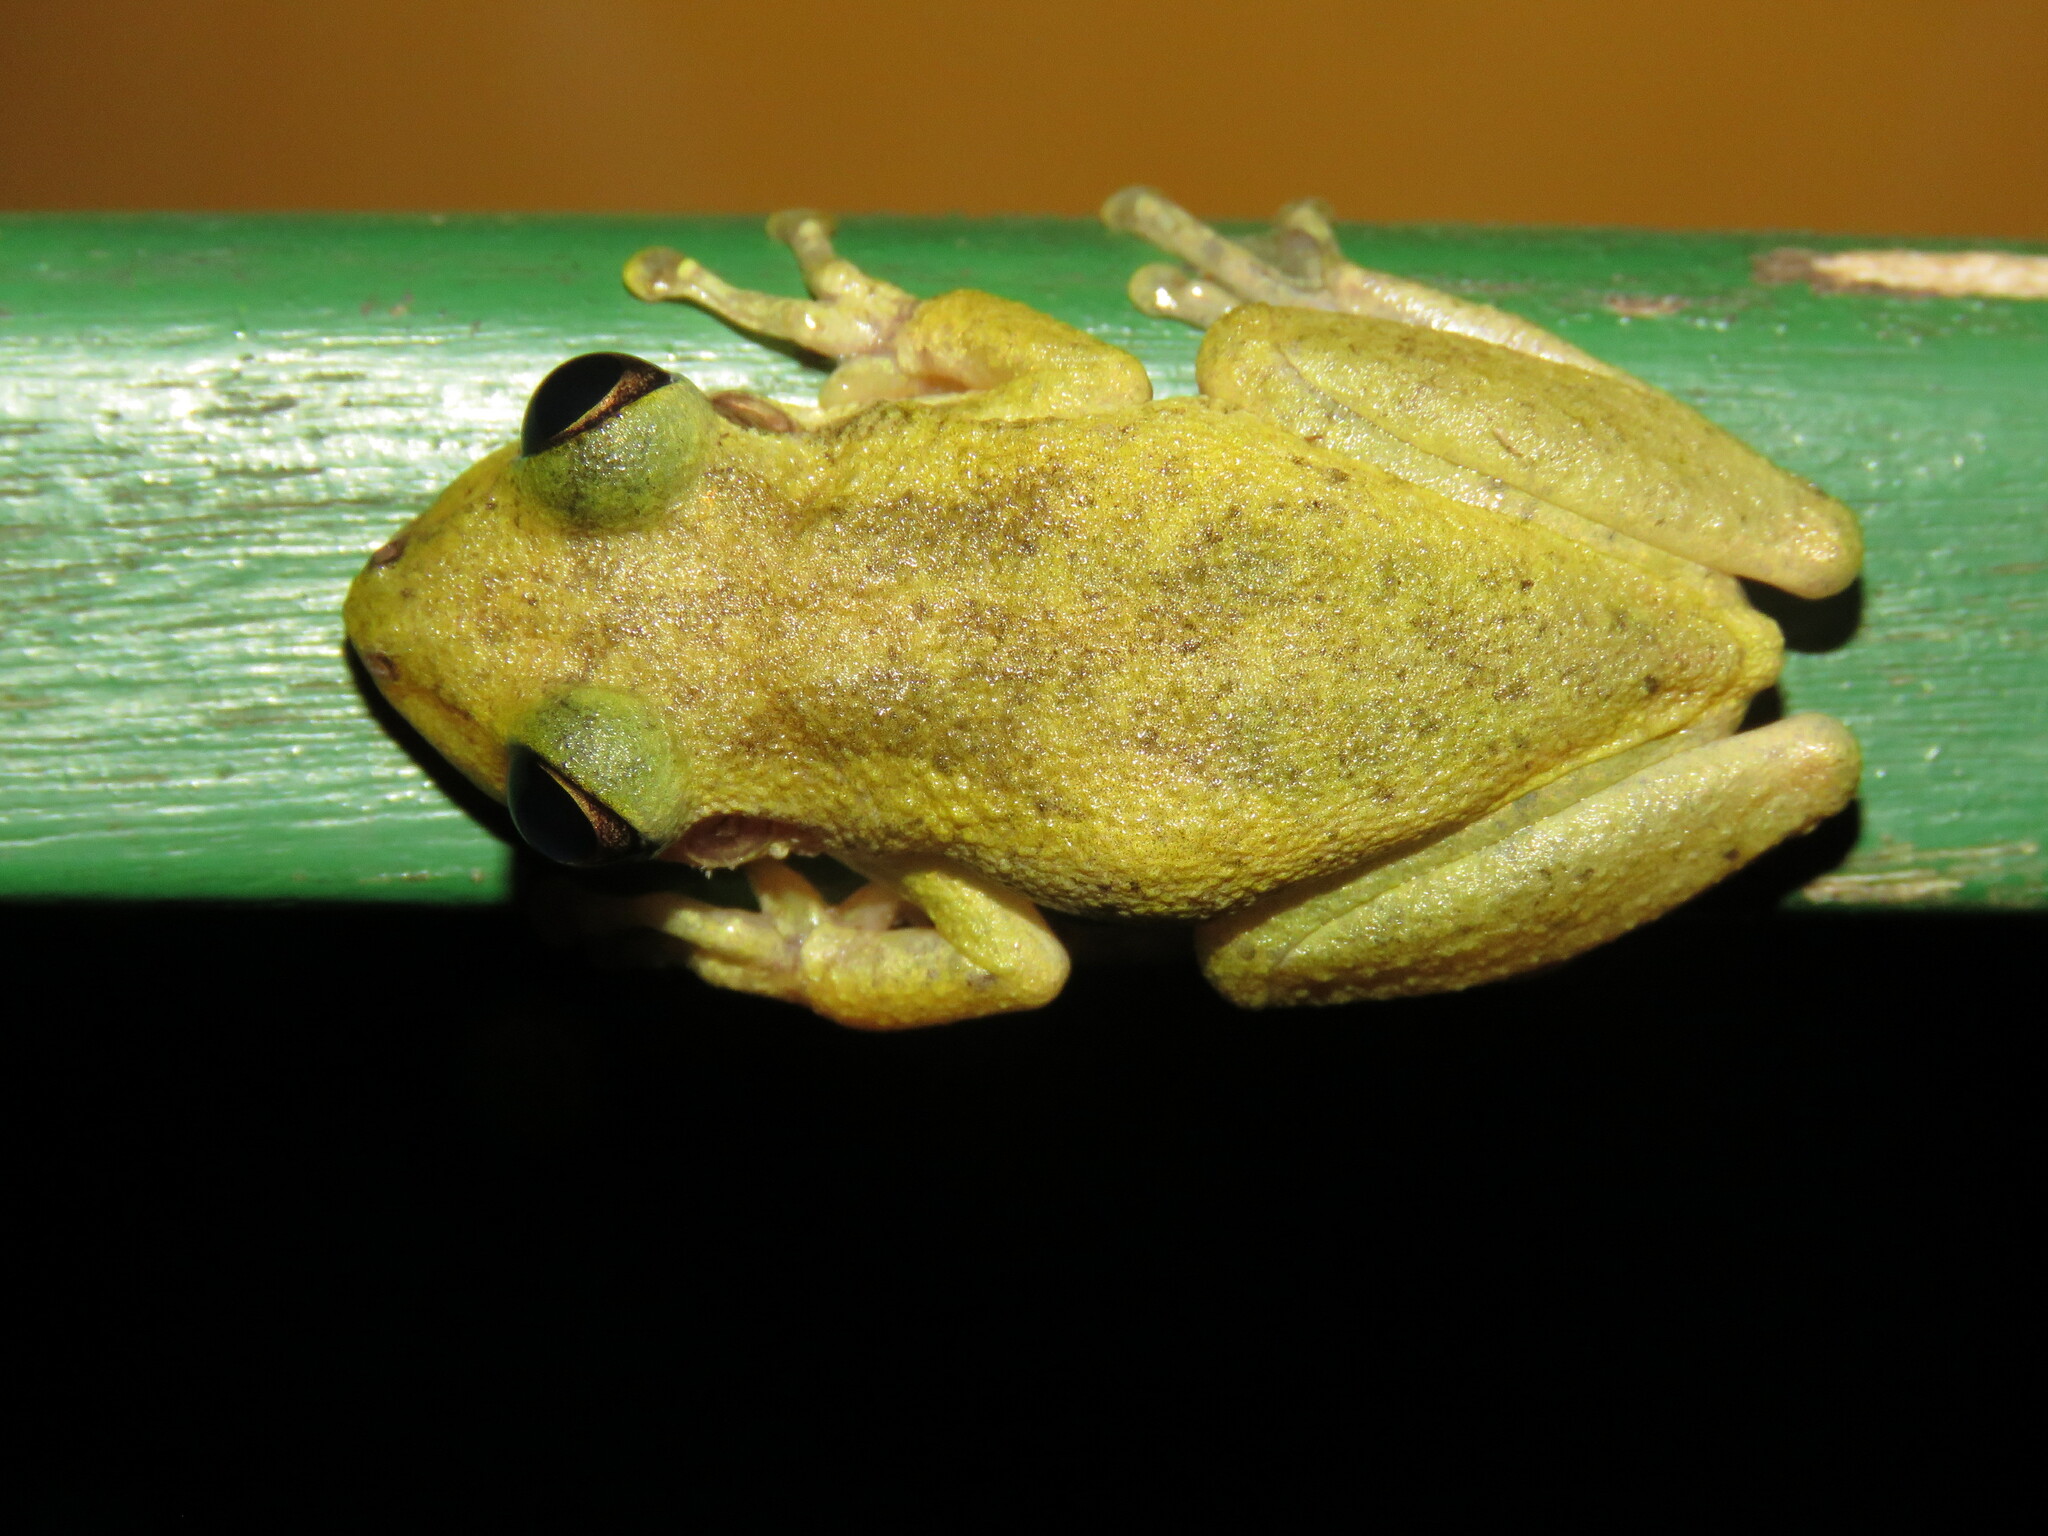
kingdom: Animalia
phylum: Chordata
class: Amphibia
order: Anura
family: Hylidae
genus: Scinax
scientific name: Scinax ruber
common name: Red snouted treefrog
